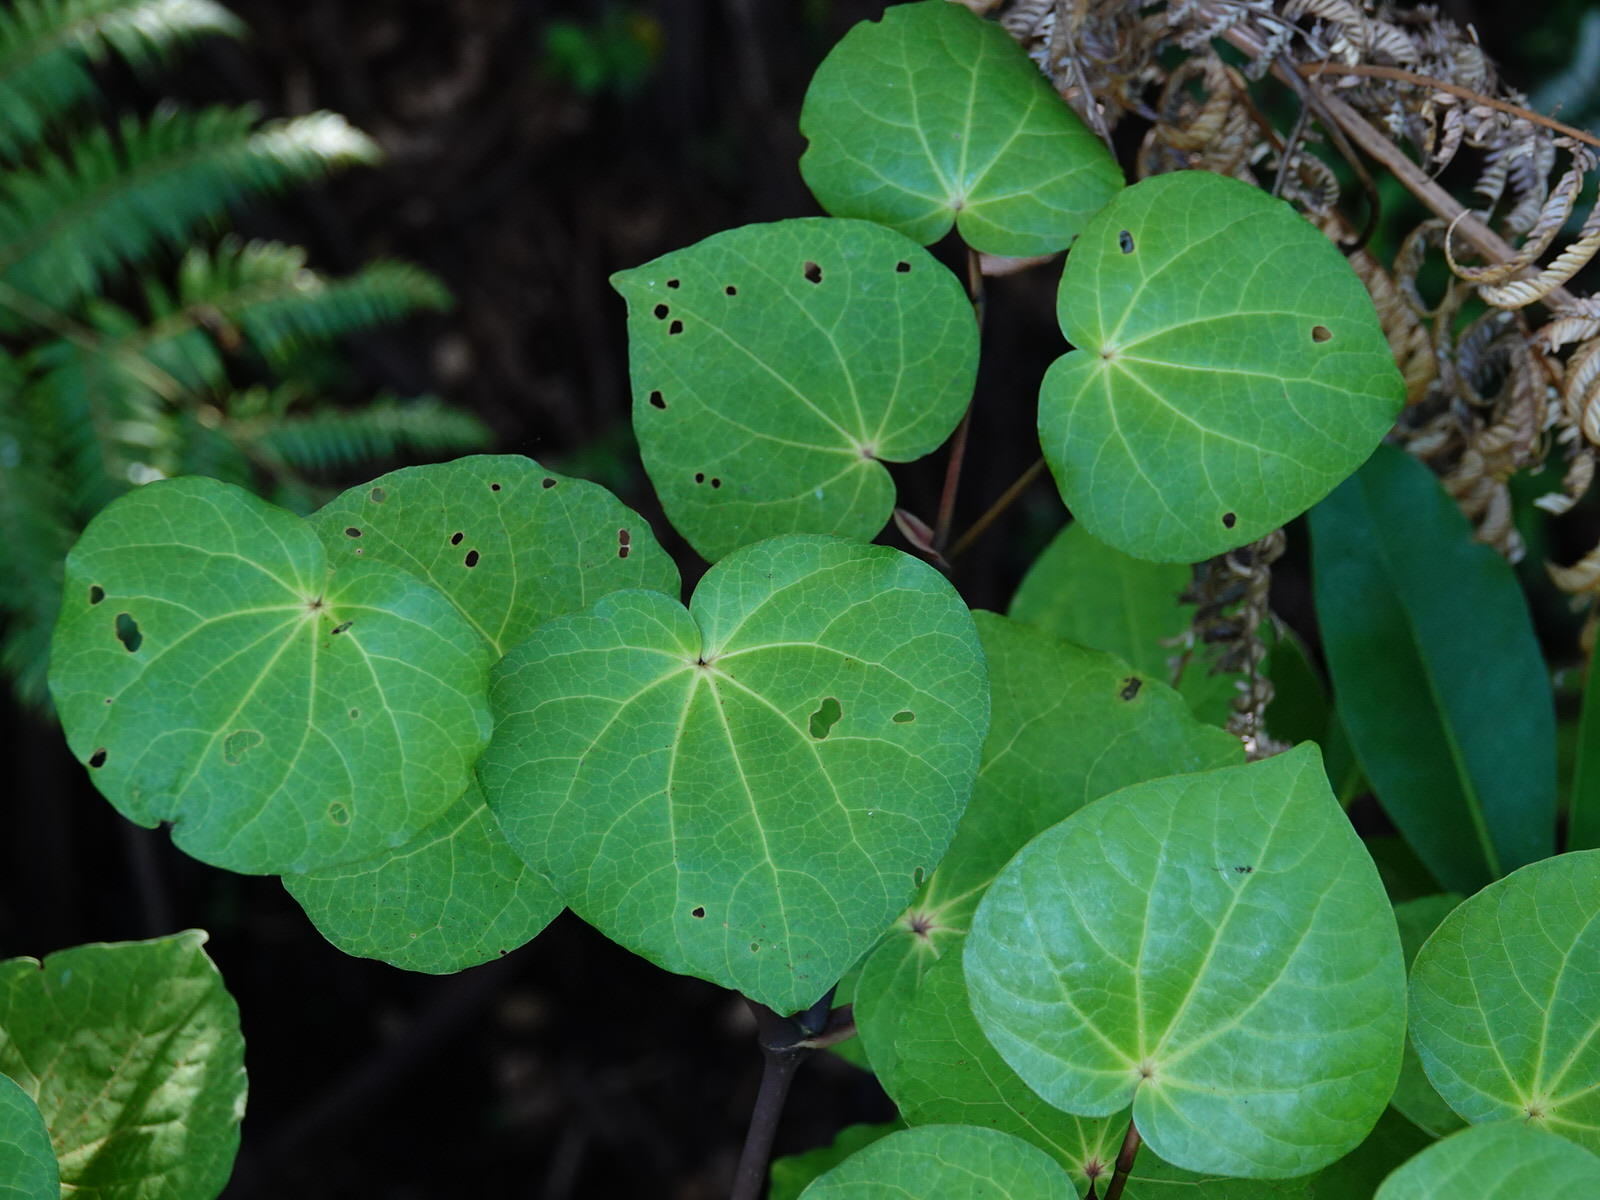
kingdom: Plantae
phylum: Tracheophyta
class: Magnoliopsida
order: Piperales
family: Piperaceae
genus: Macropiper
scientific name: Macropiper excelsum
